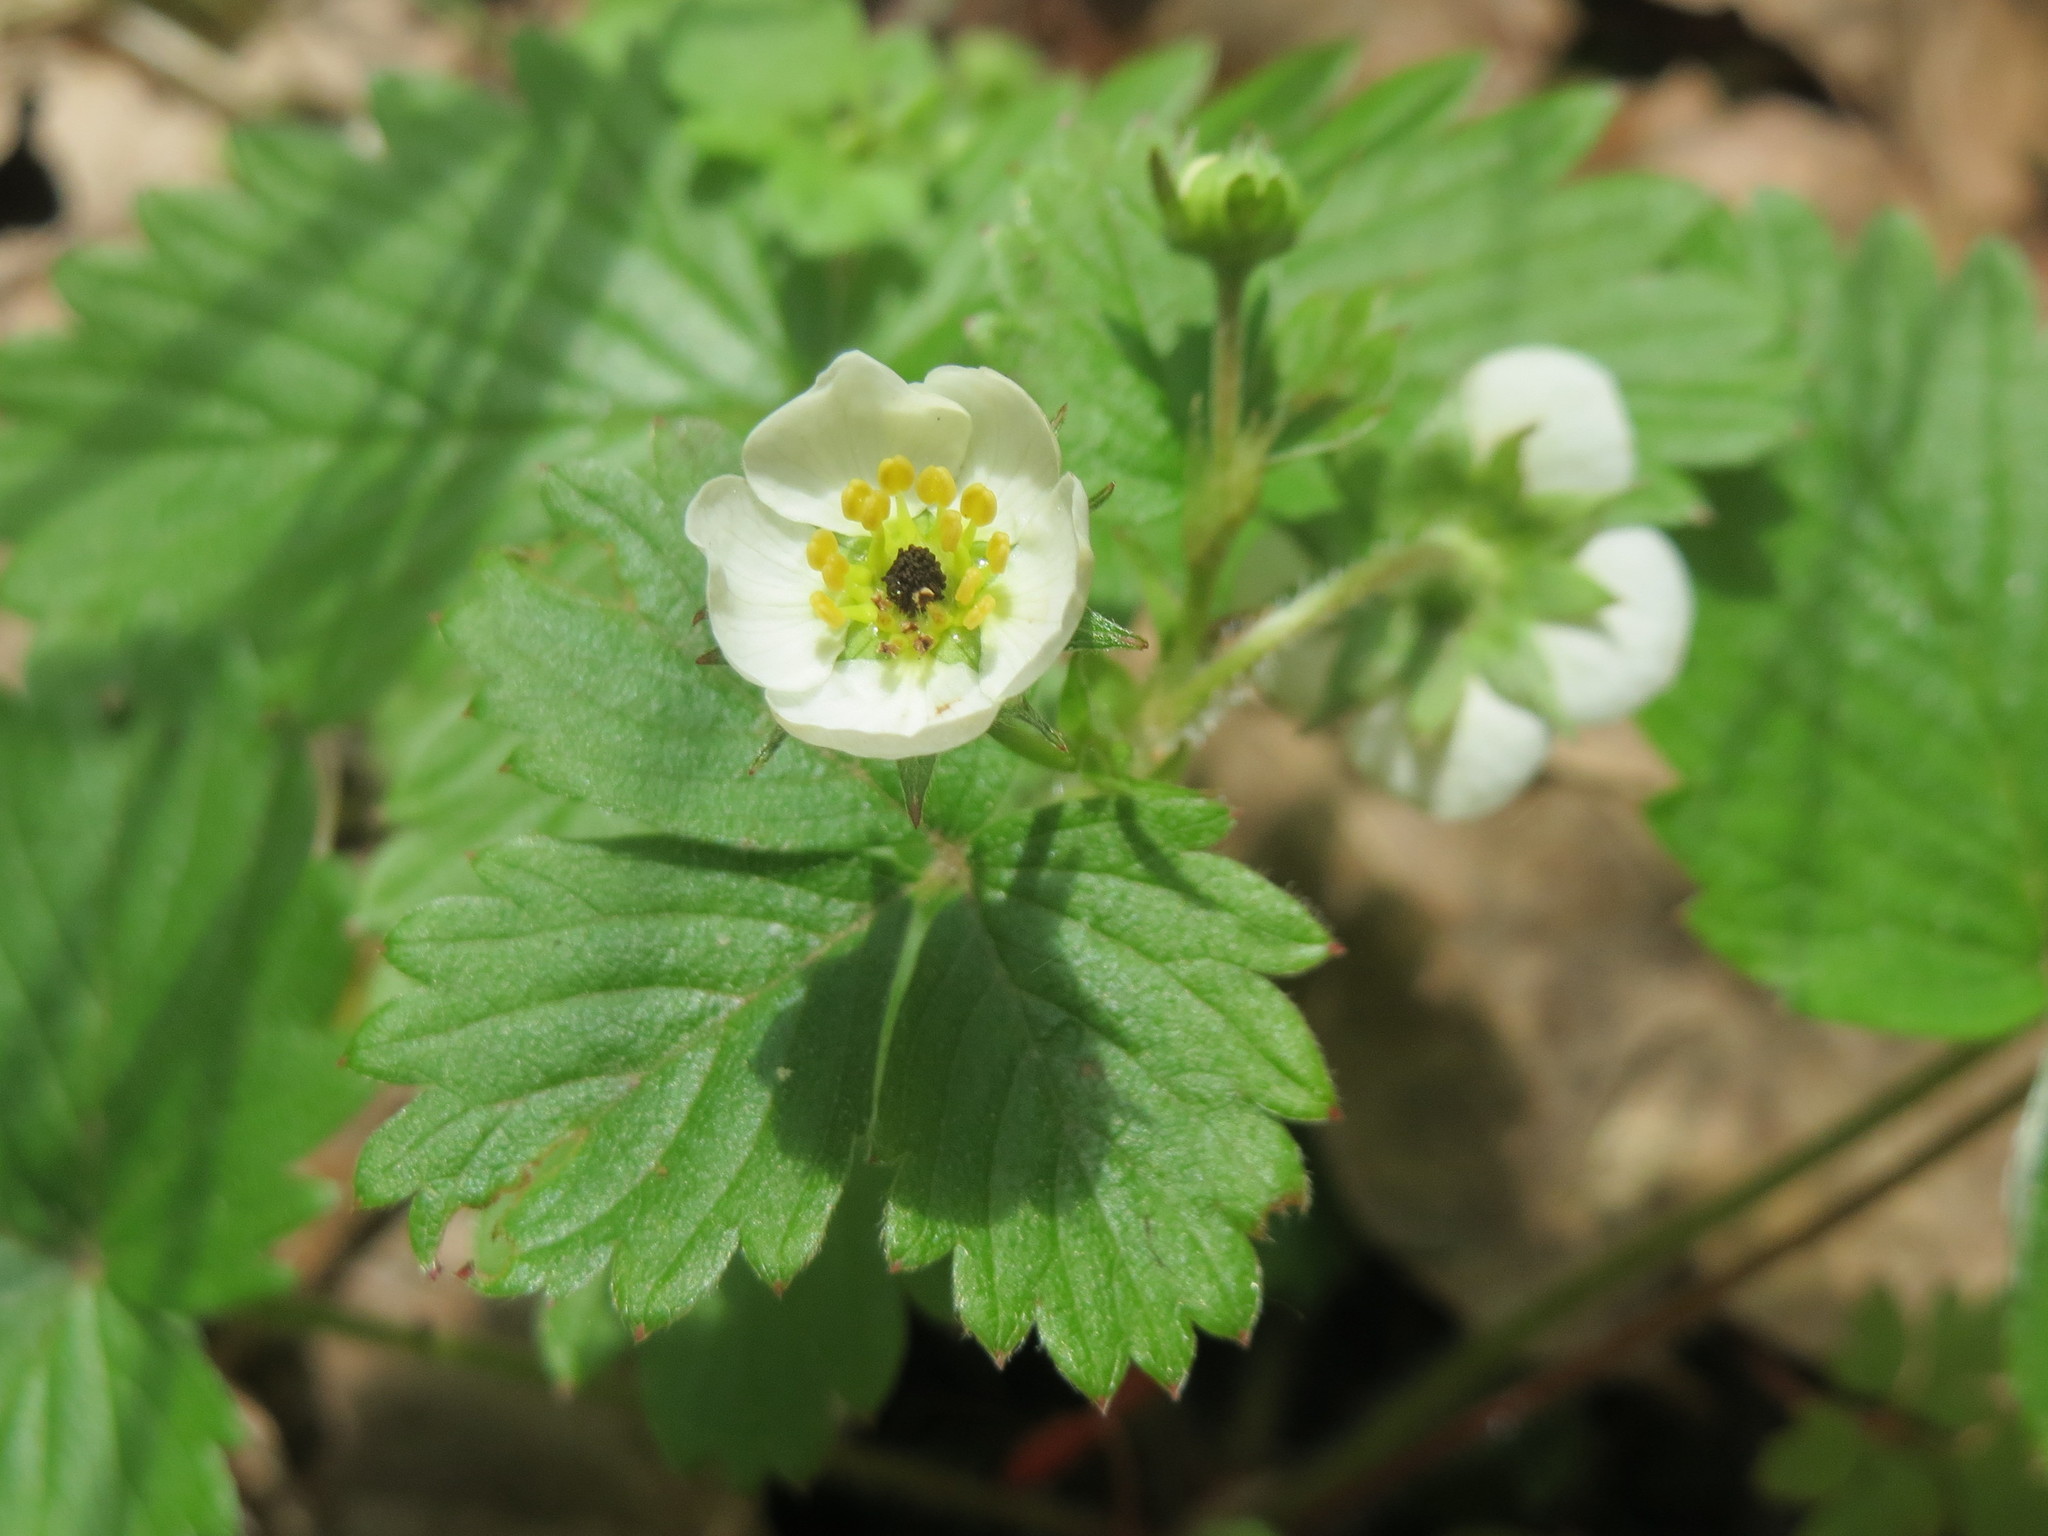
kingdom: Plantae
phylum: Tracheophyta
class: Magnoliopsida
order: Rosales
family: Rosaceae
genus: Fragaria
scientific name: Fragaria vesca
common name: Wild strawberry
